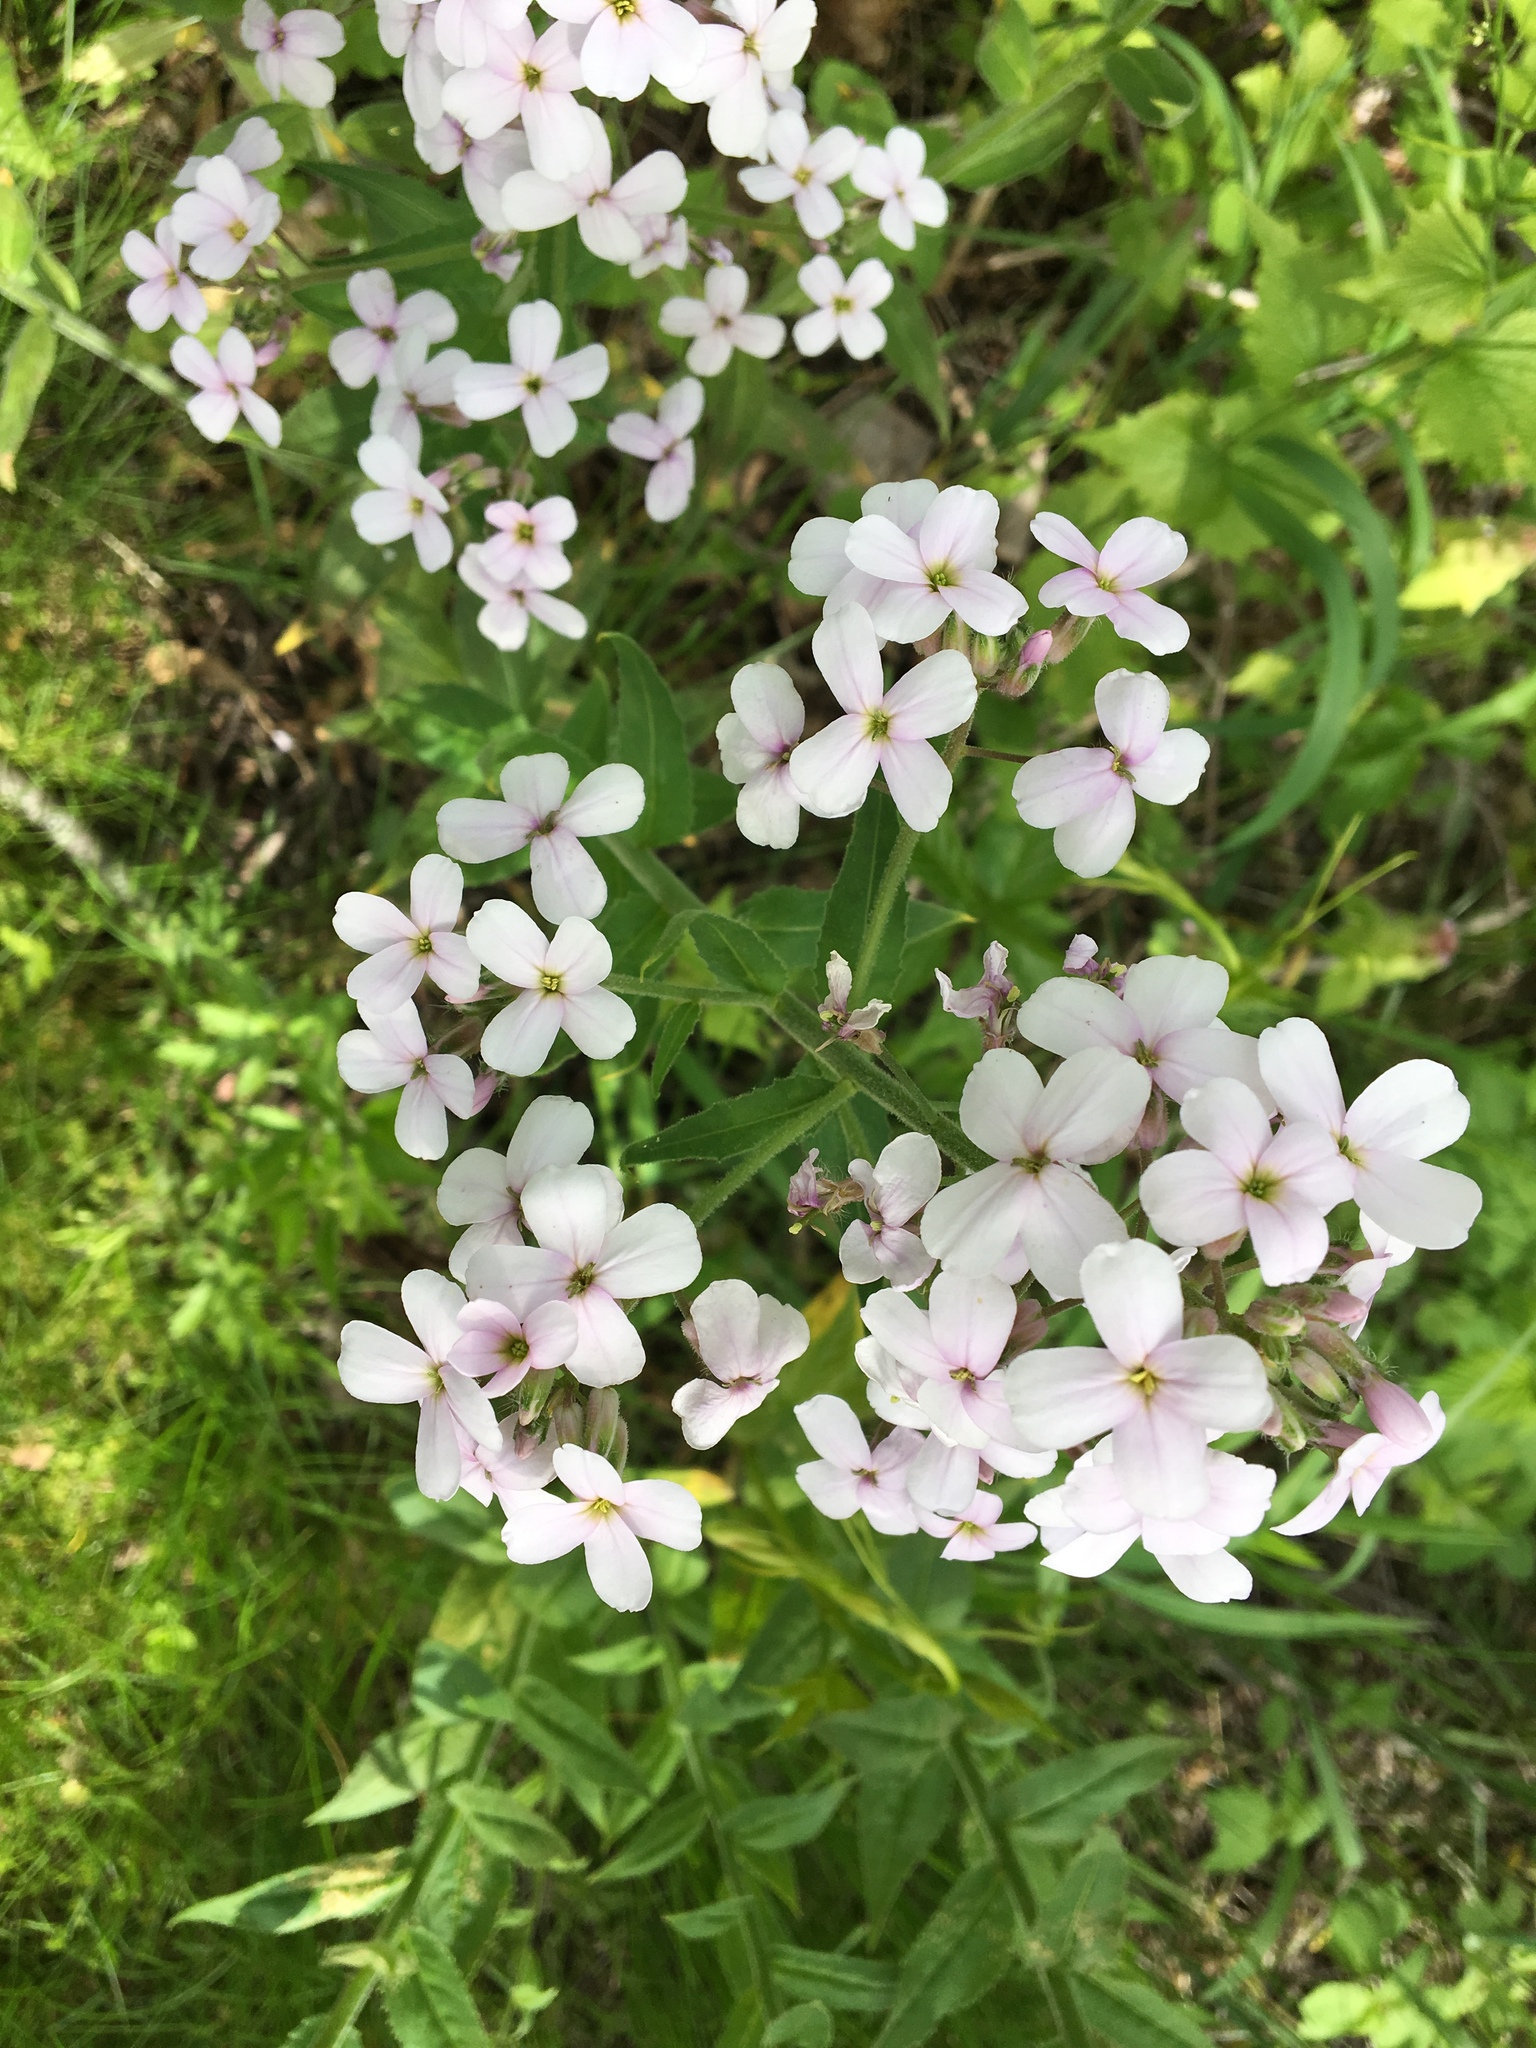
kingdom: Plantae
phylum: Tracheophyta
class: Magnoliopsida
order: Brassicales
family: Brassicaceae
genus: Hesperis
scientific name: Hesperis matronalis
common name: Dame's-violet
